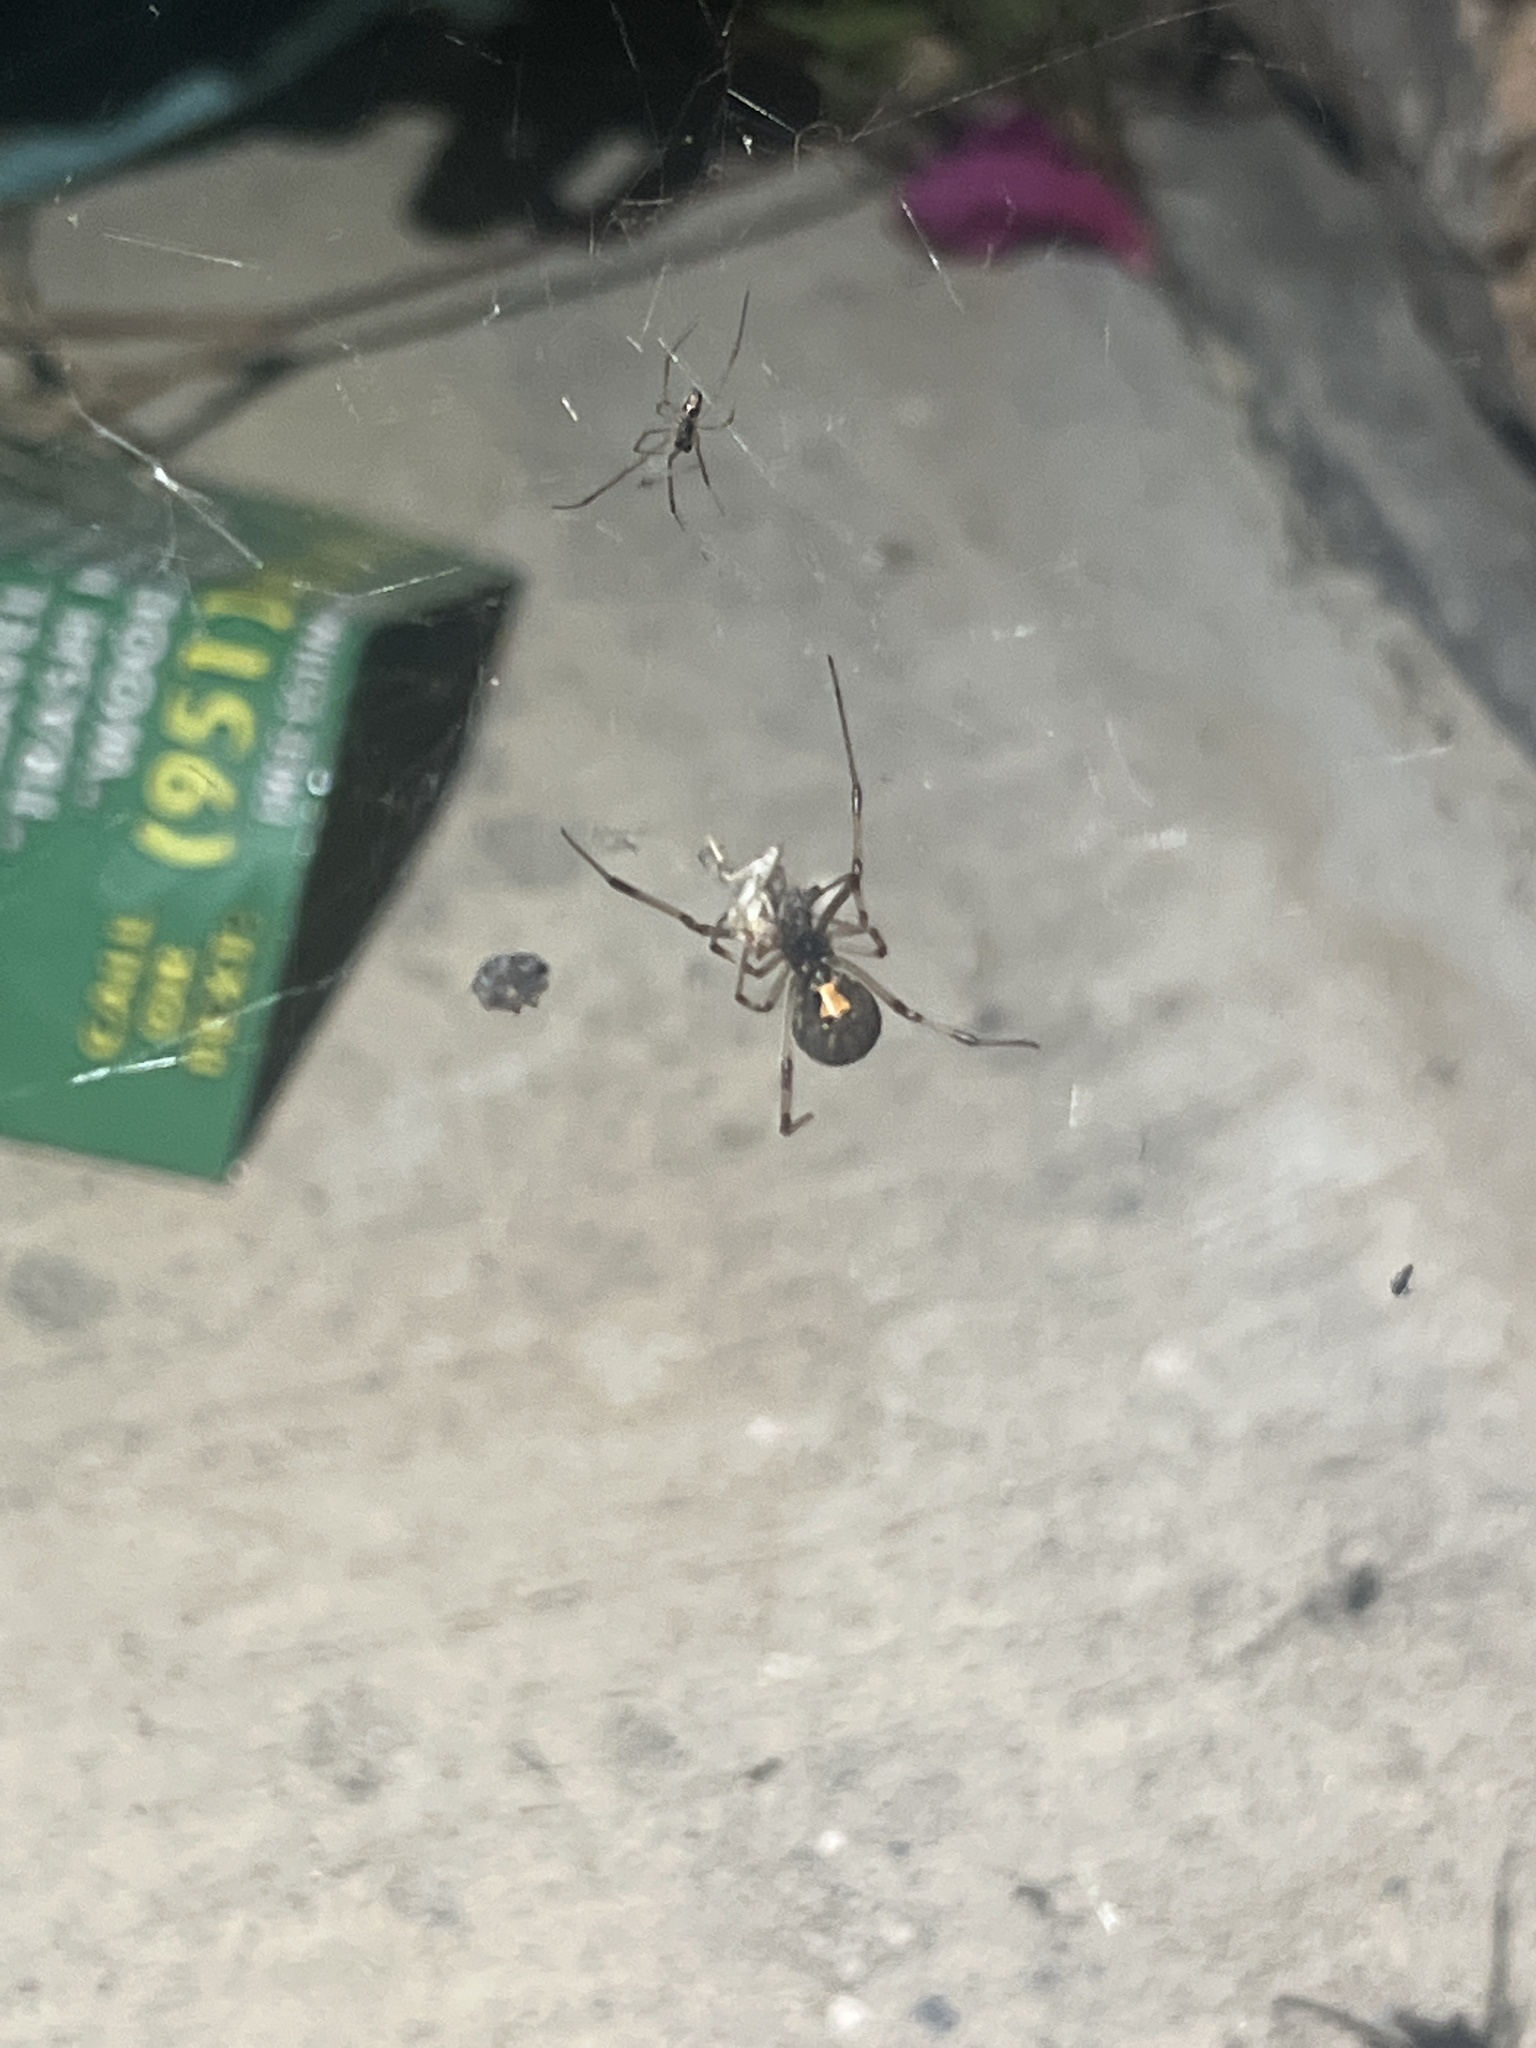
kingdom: Animalia
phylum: Arthropoda
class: Arachnida
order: Araneae
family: Theridiidae
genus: Latrodectus
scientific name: Latrodectus geometricus
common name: Brown widow spider
